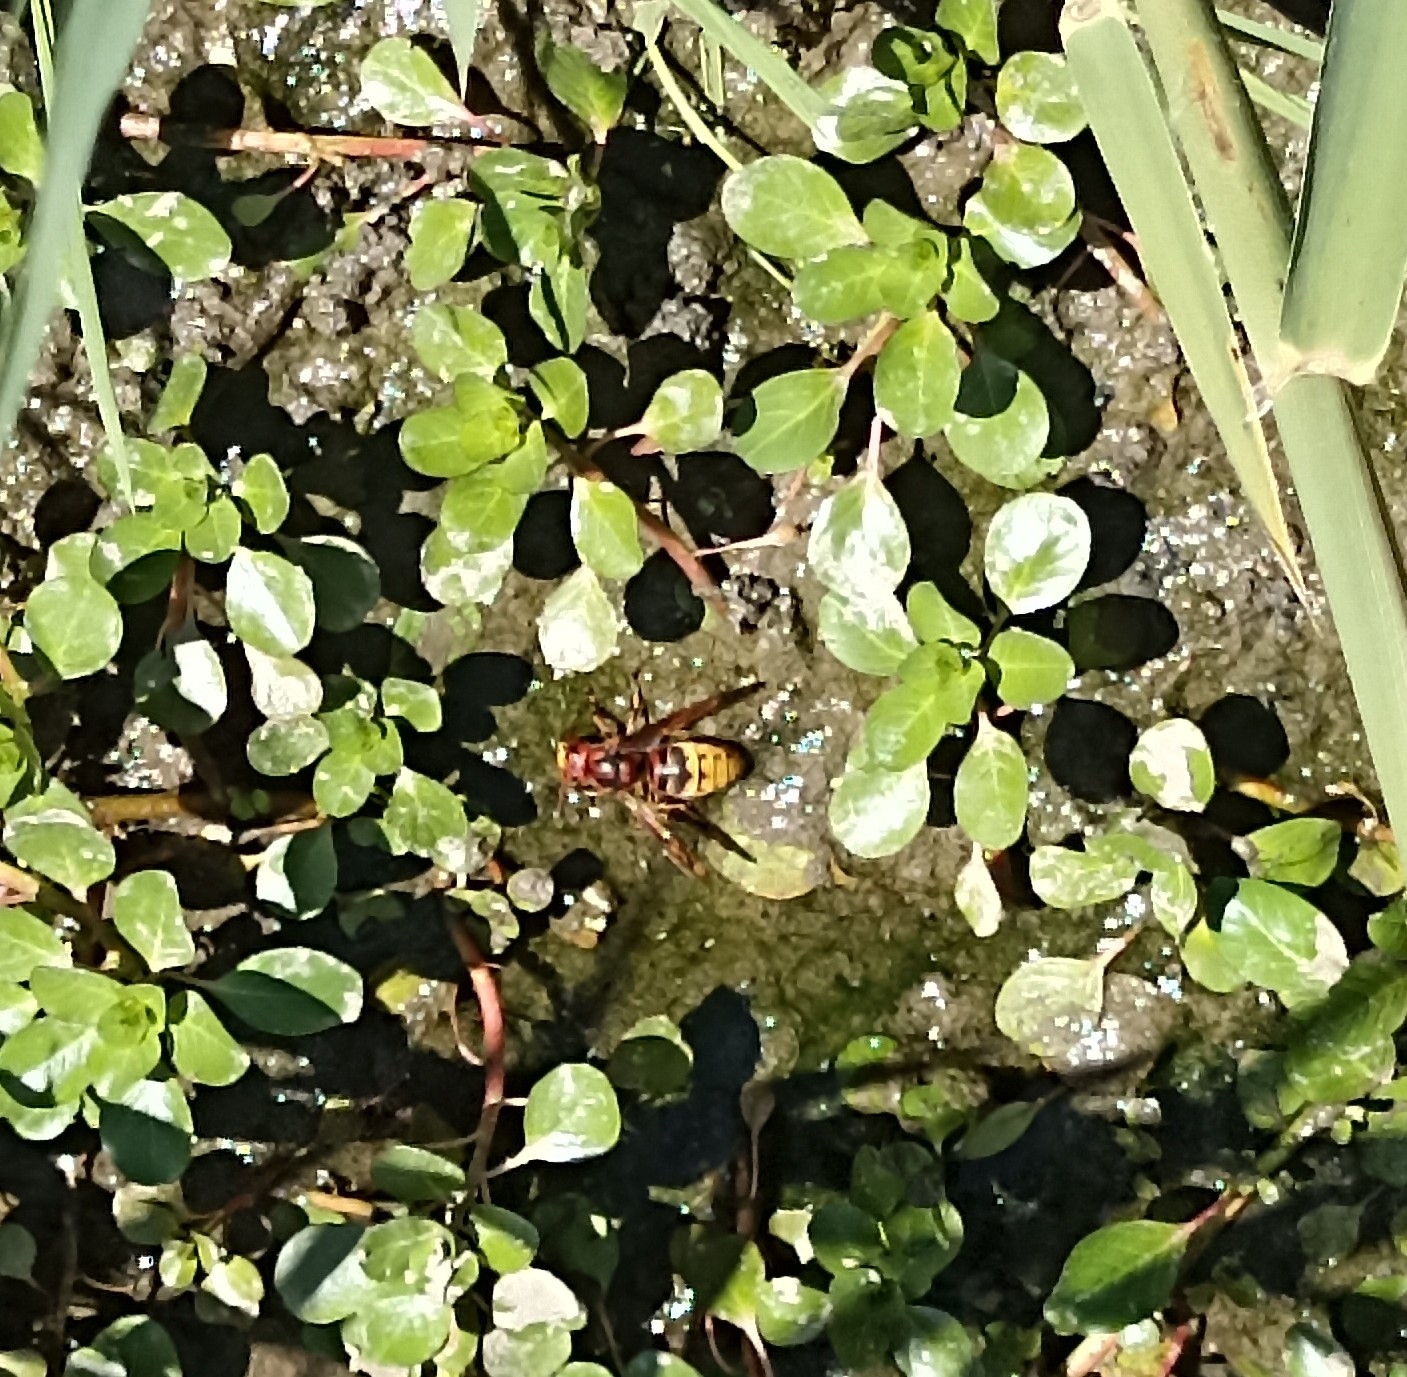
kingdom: Animalia
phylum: Arthropoda
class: Insecta
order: Hymenoptera
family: Vespidae
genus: Vespa
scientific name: Vespa crabro
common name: Hornet
